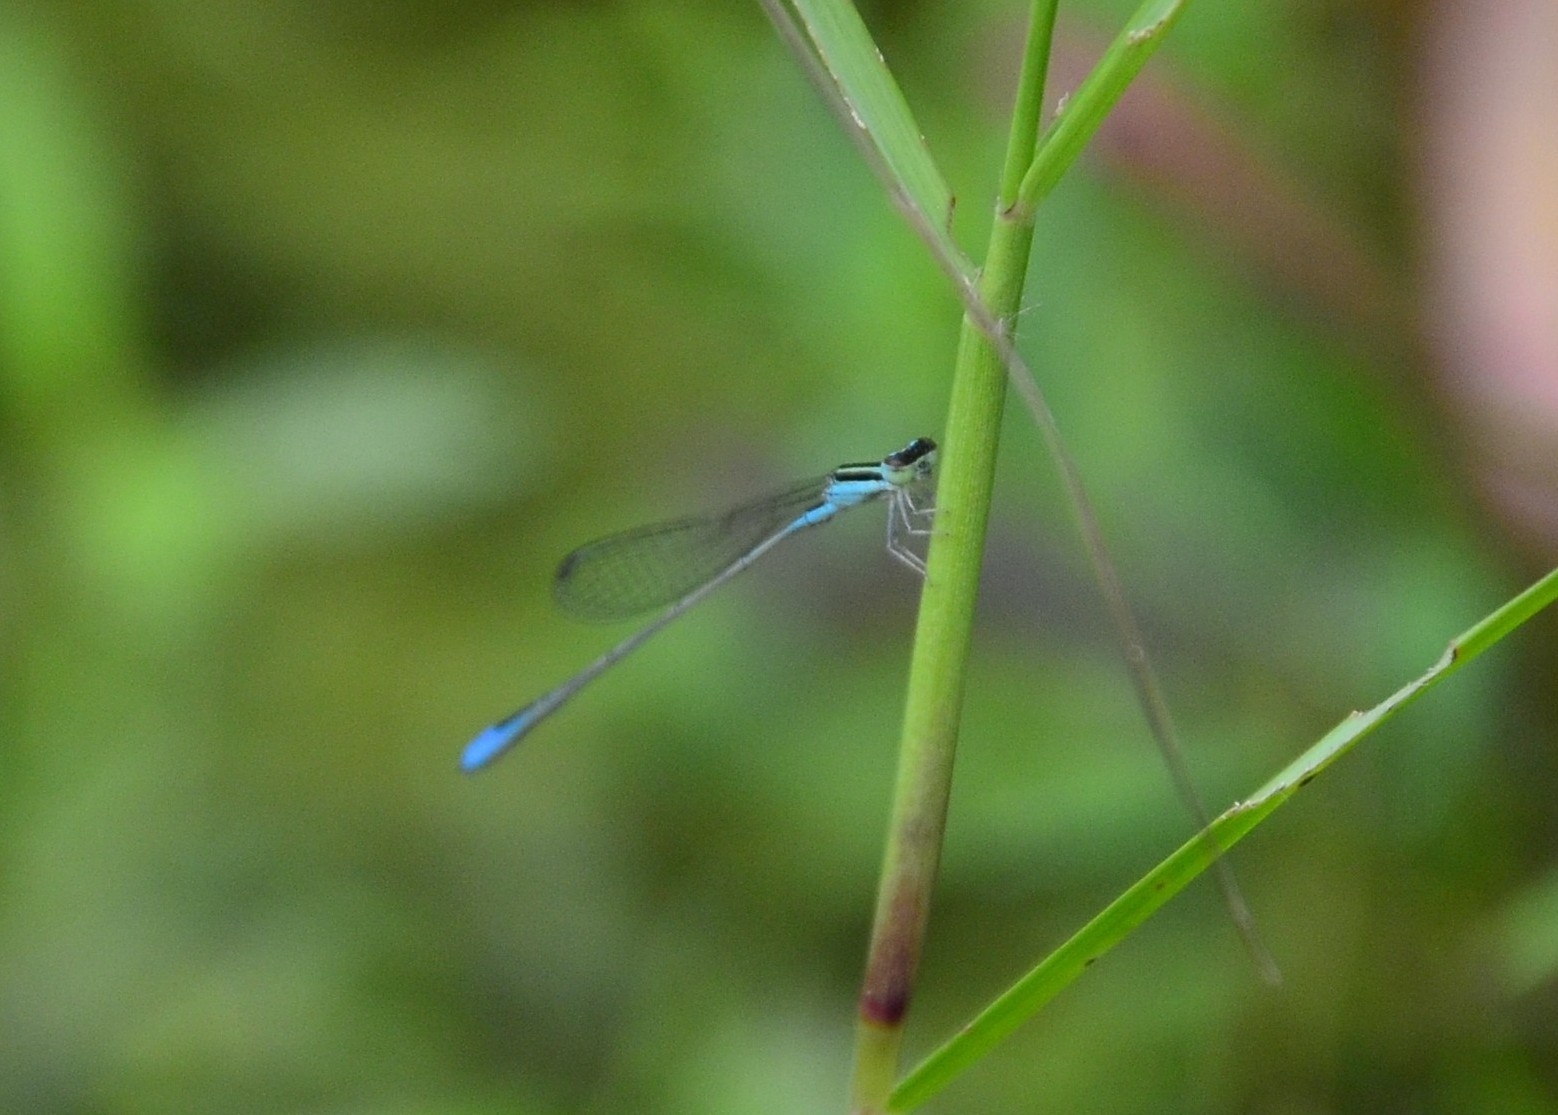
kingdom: Animalia
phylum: Arthropoda
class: Insecta
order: Odonata
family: Coenagrionidae
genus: Aciagrion
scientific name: Aciagrion occidentale
